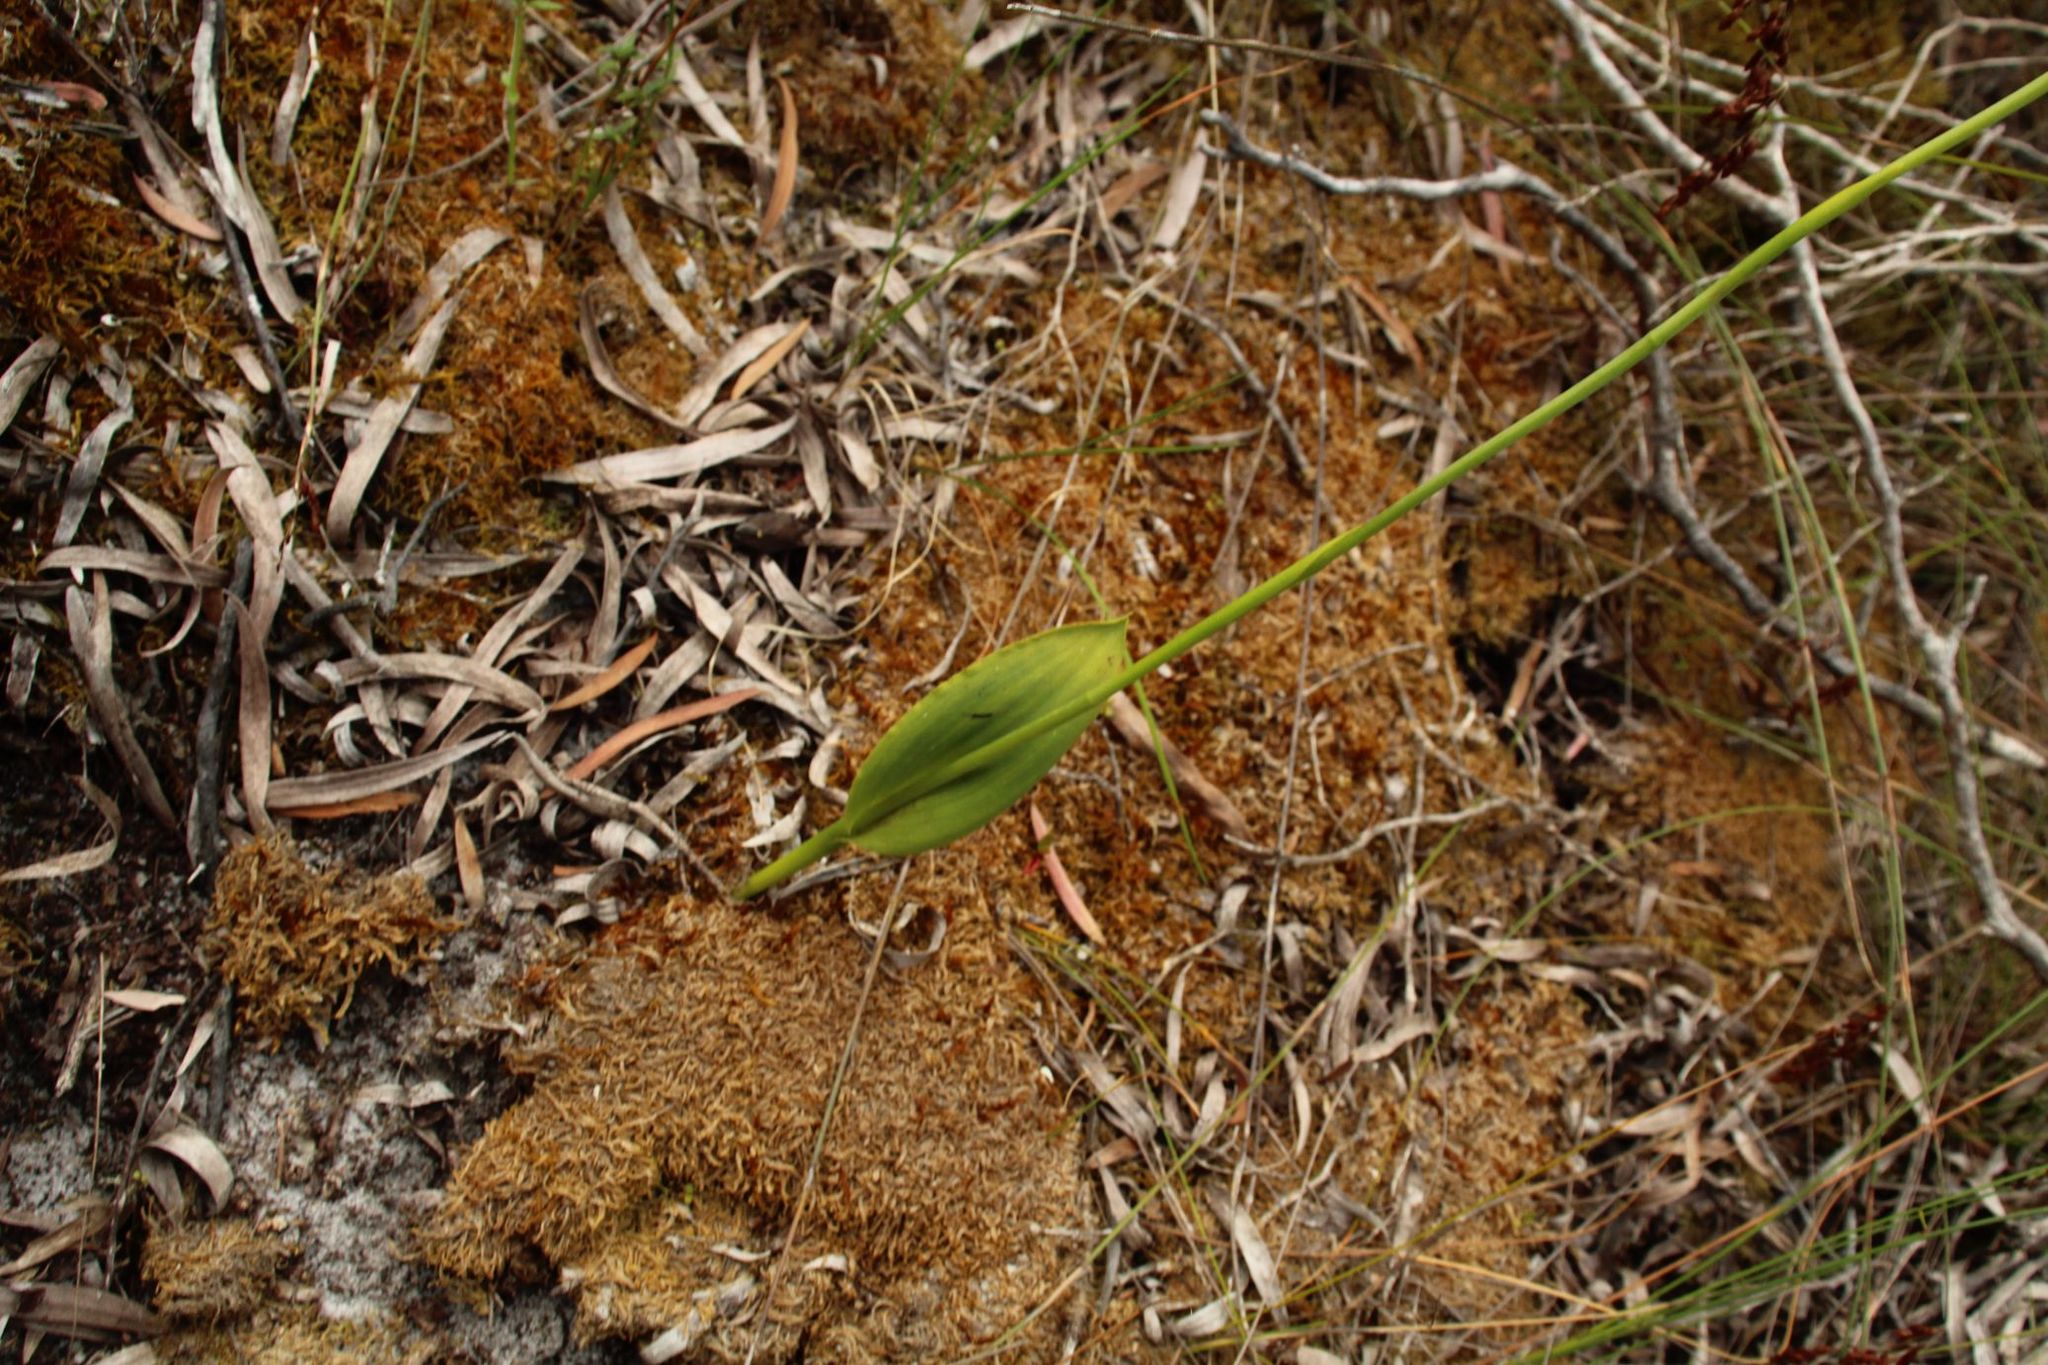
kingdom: Plantae
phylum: Tracheophyta
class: Liliopsida
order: Asparagales
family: Orchidaceae
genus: Thelymitra
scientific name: Thelymitra benthamiana
